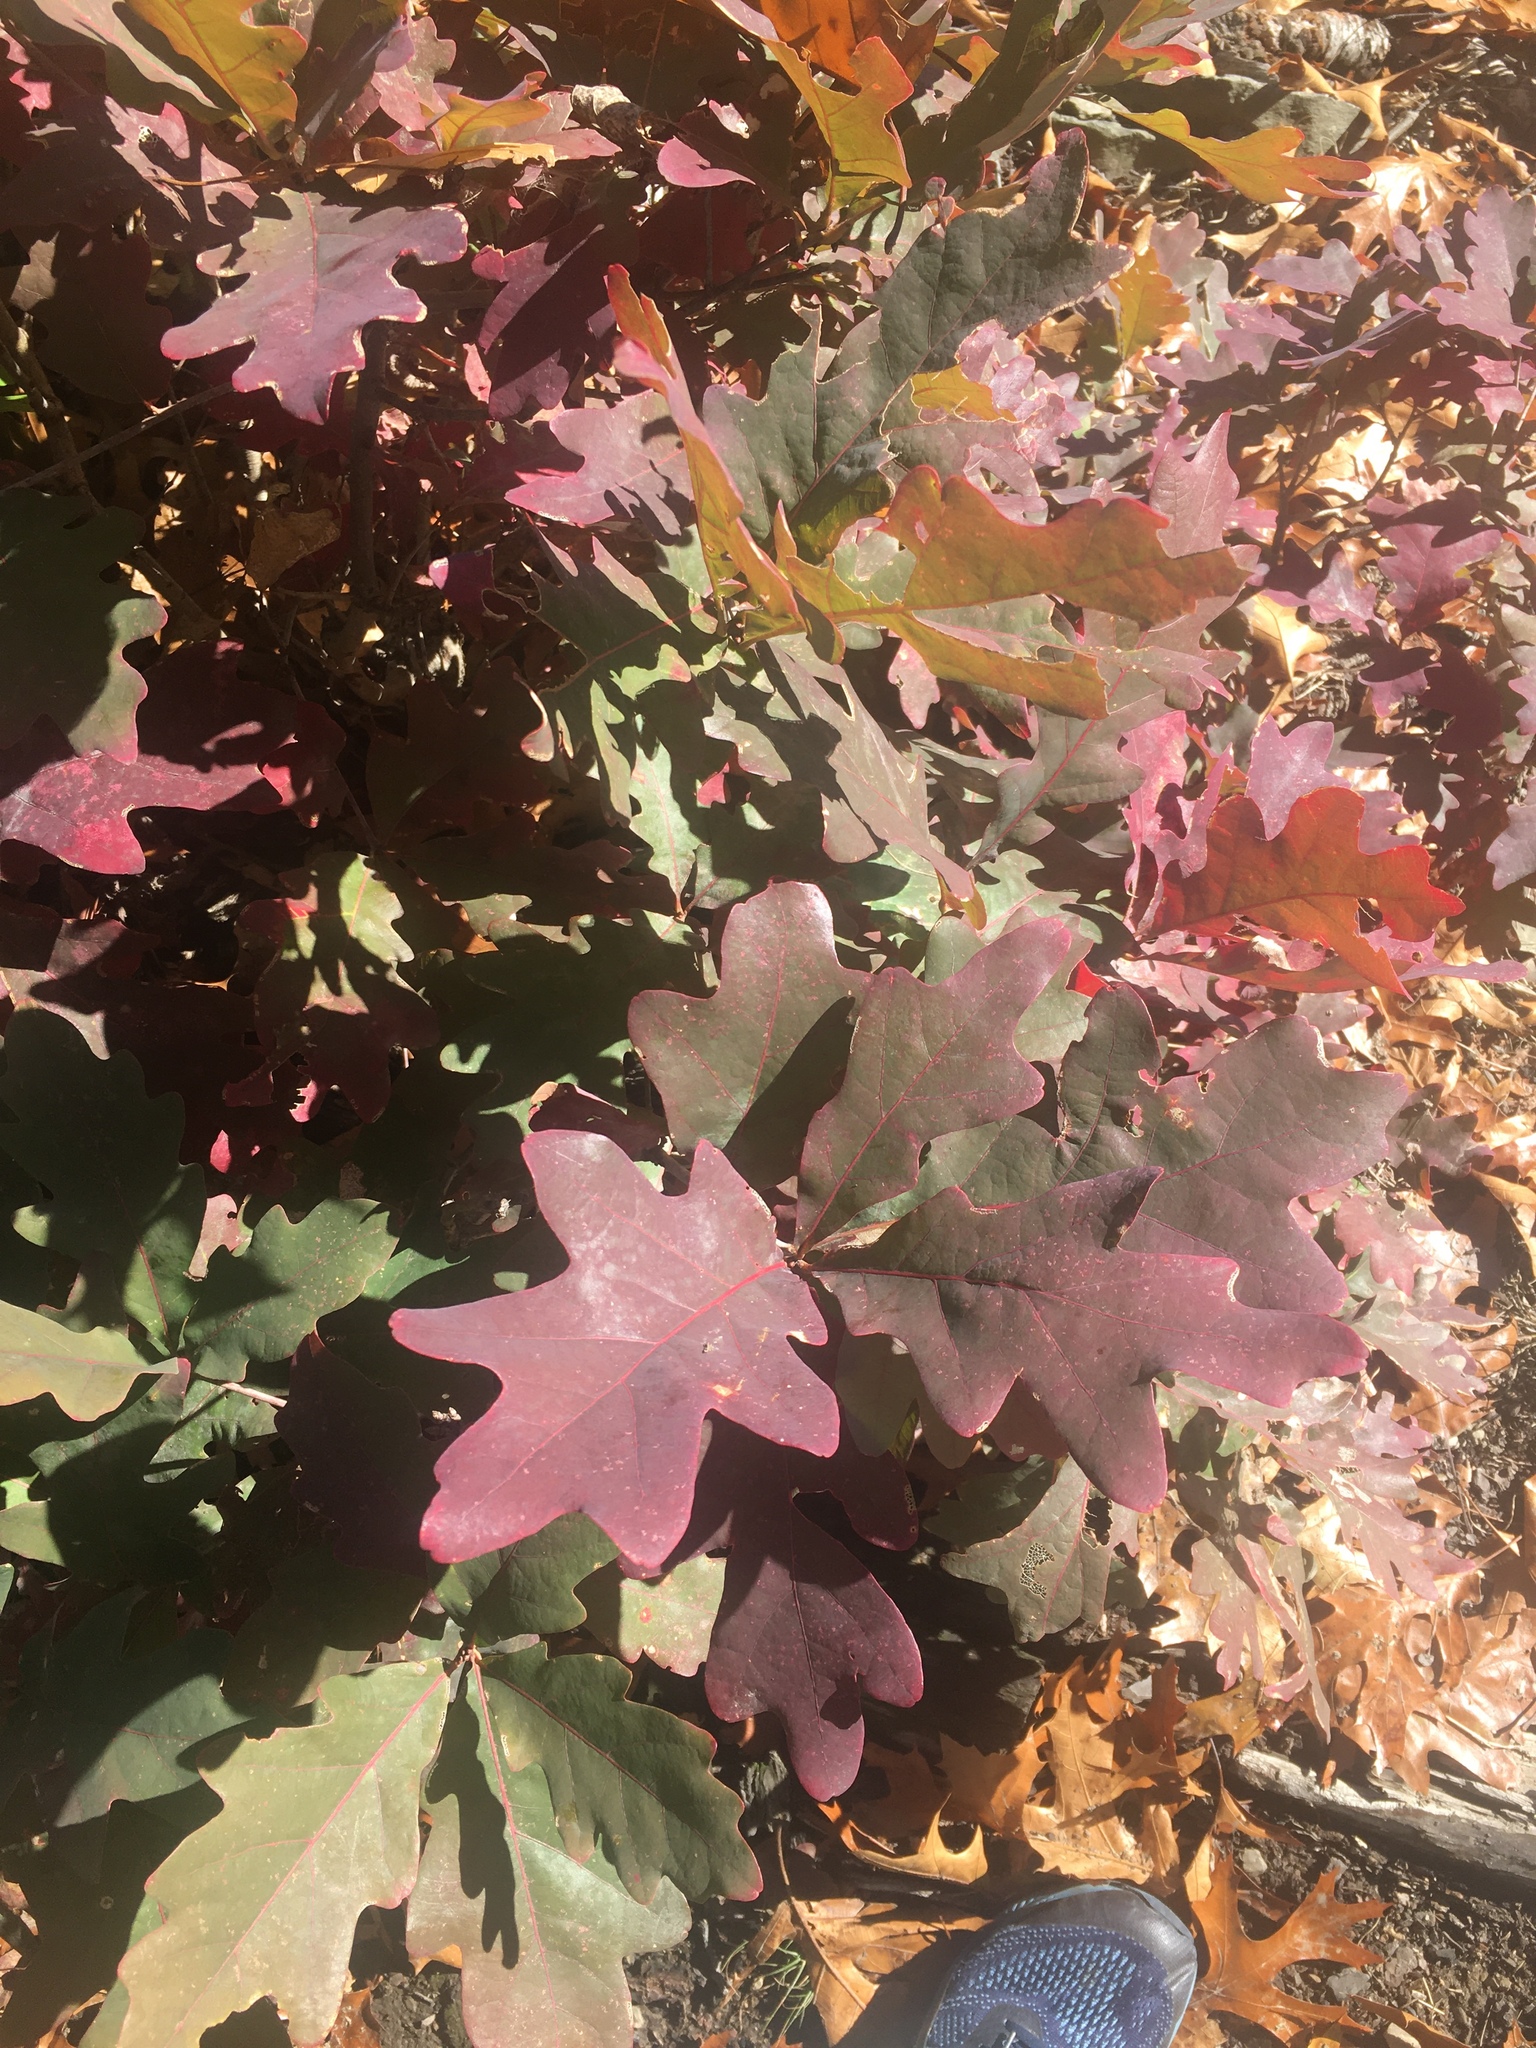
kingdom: Plantae
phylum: Tracheophyta
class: Magnoliopsida
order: Fagales
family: Fagaceae
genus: Quercus
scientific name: Quercus alba
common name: White oak
